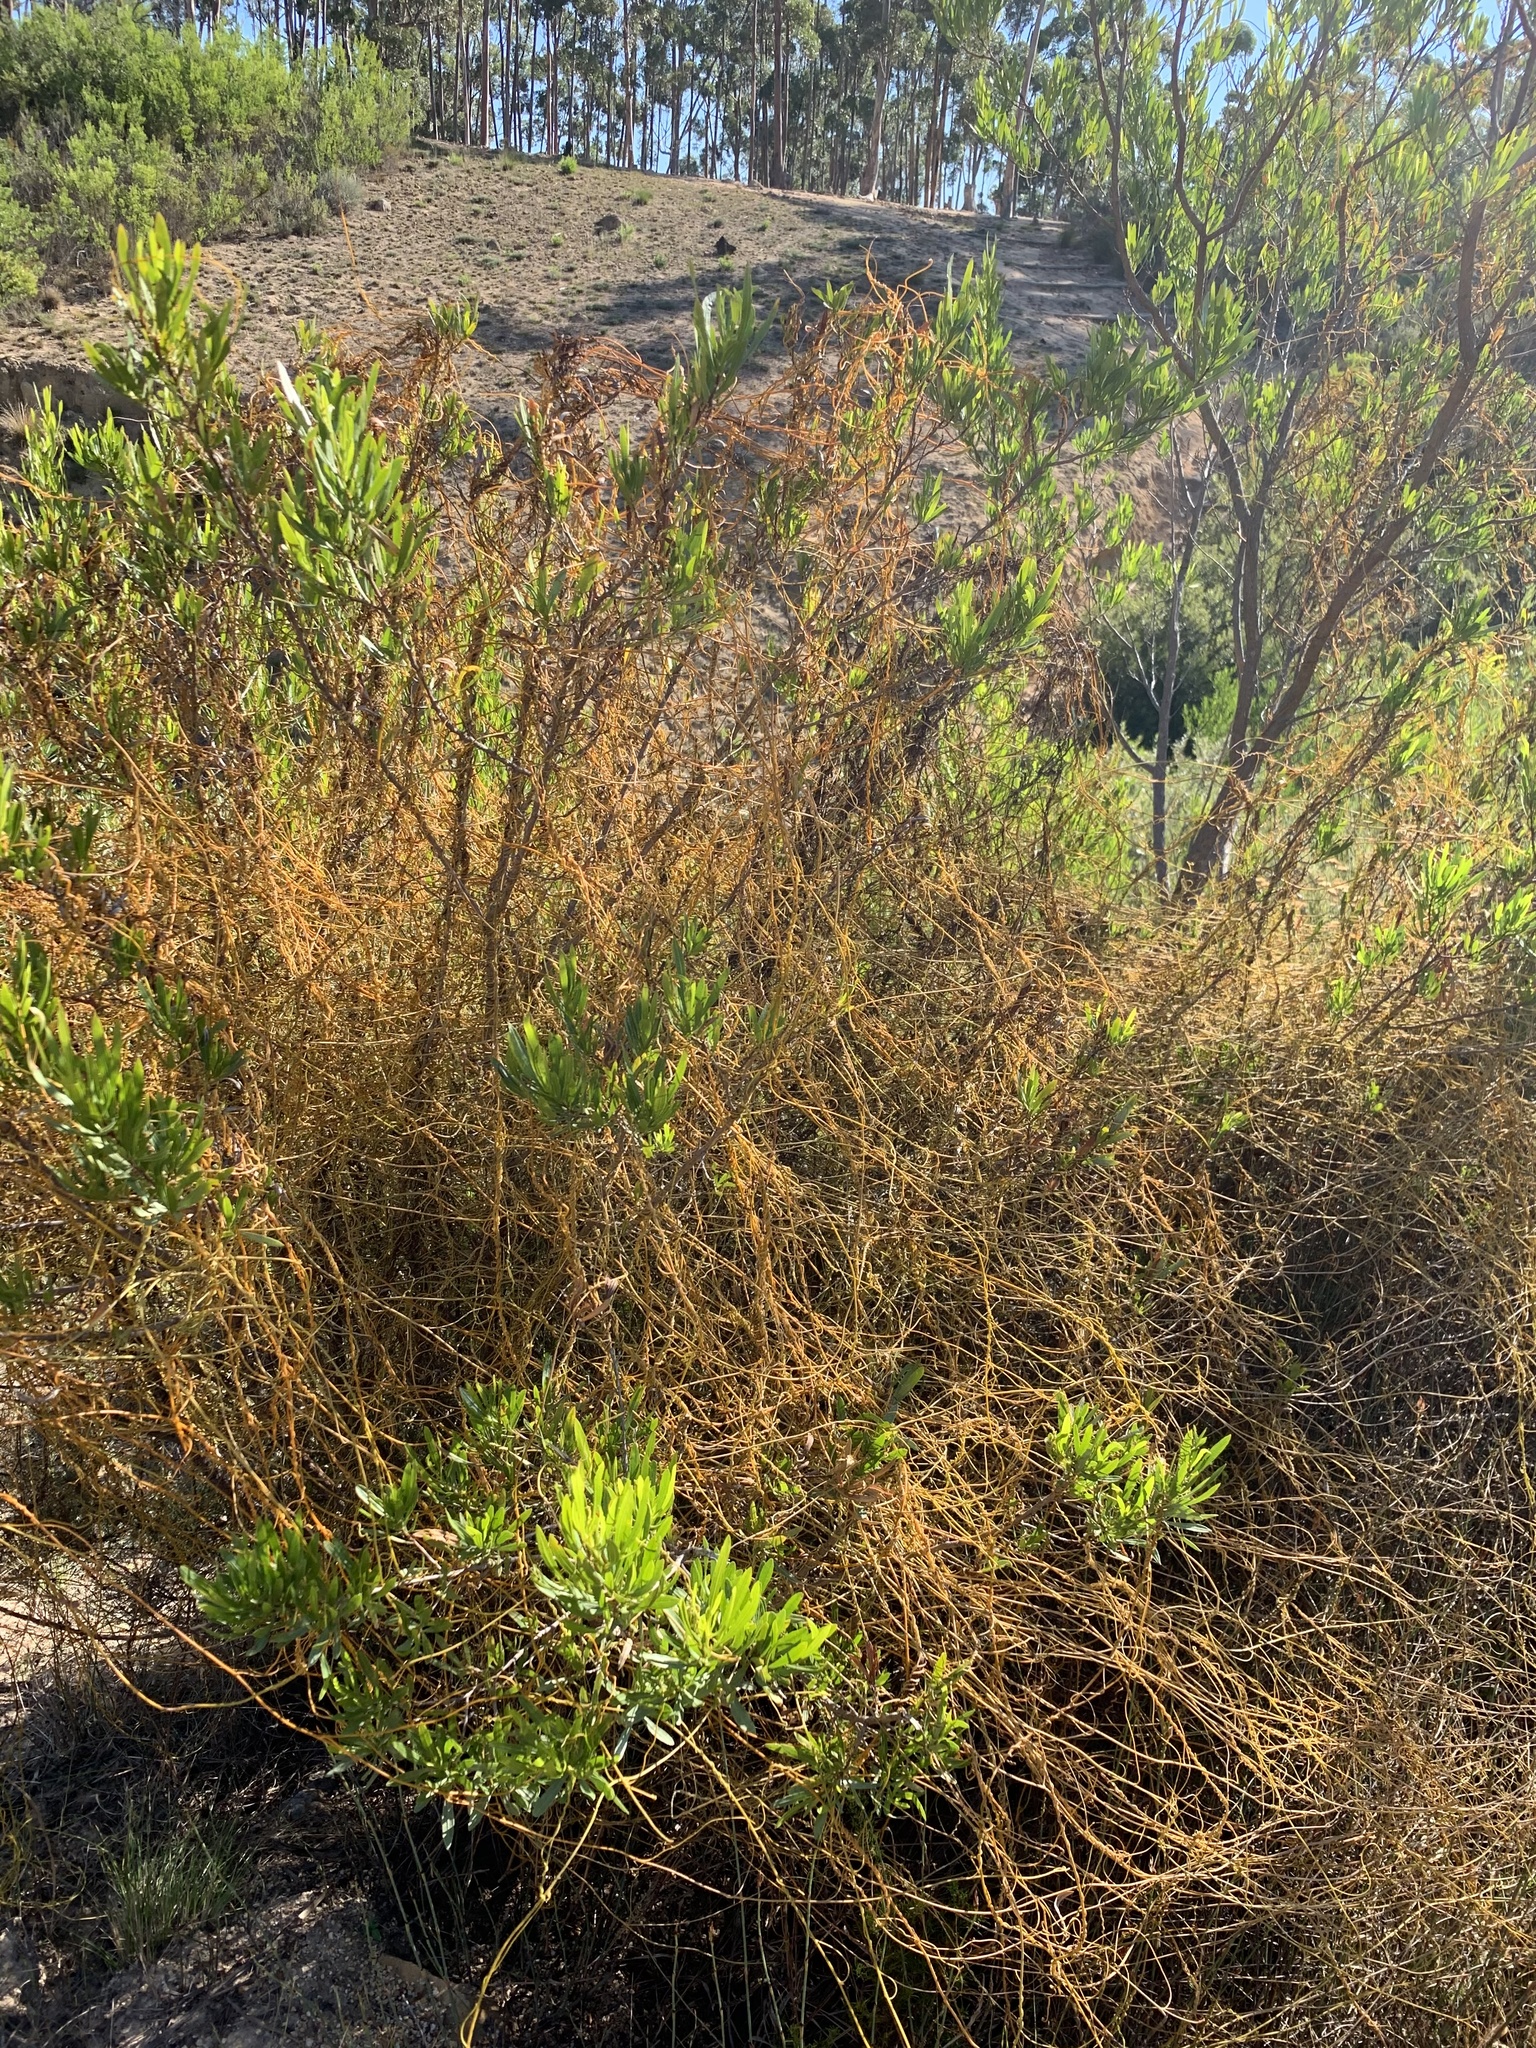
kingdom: Plantae
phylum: Tracheophyta
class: Magnoliopsida
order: Laurales
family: Lauraceae
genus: Cassytha
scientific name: Cassytha ciliolata
